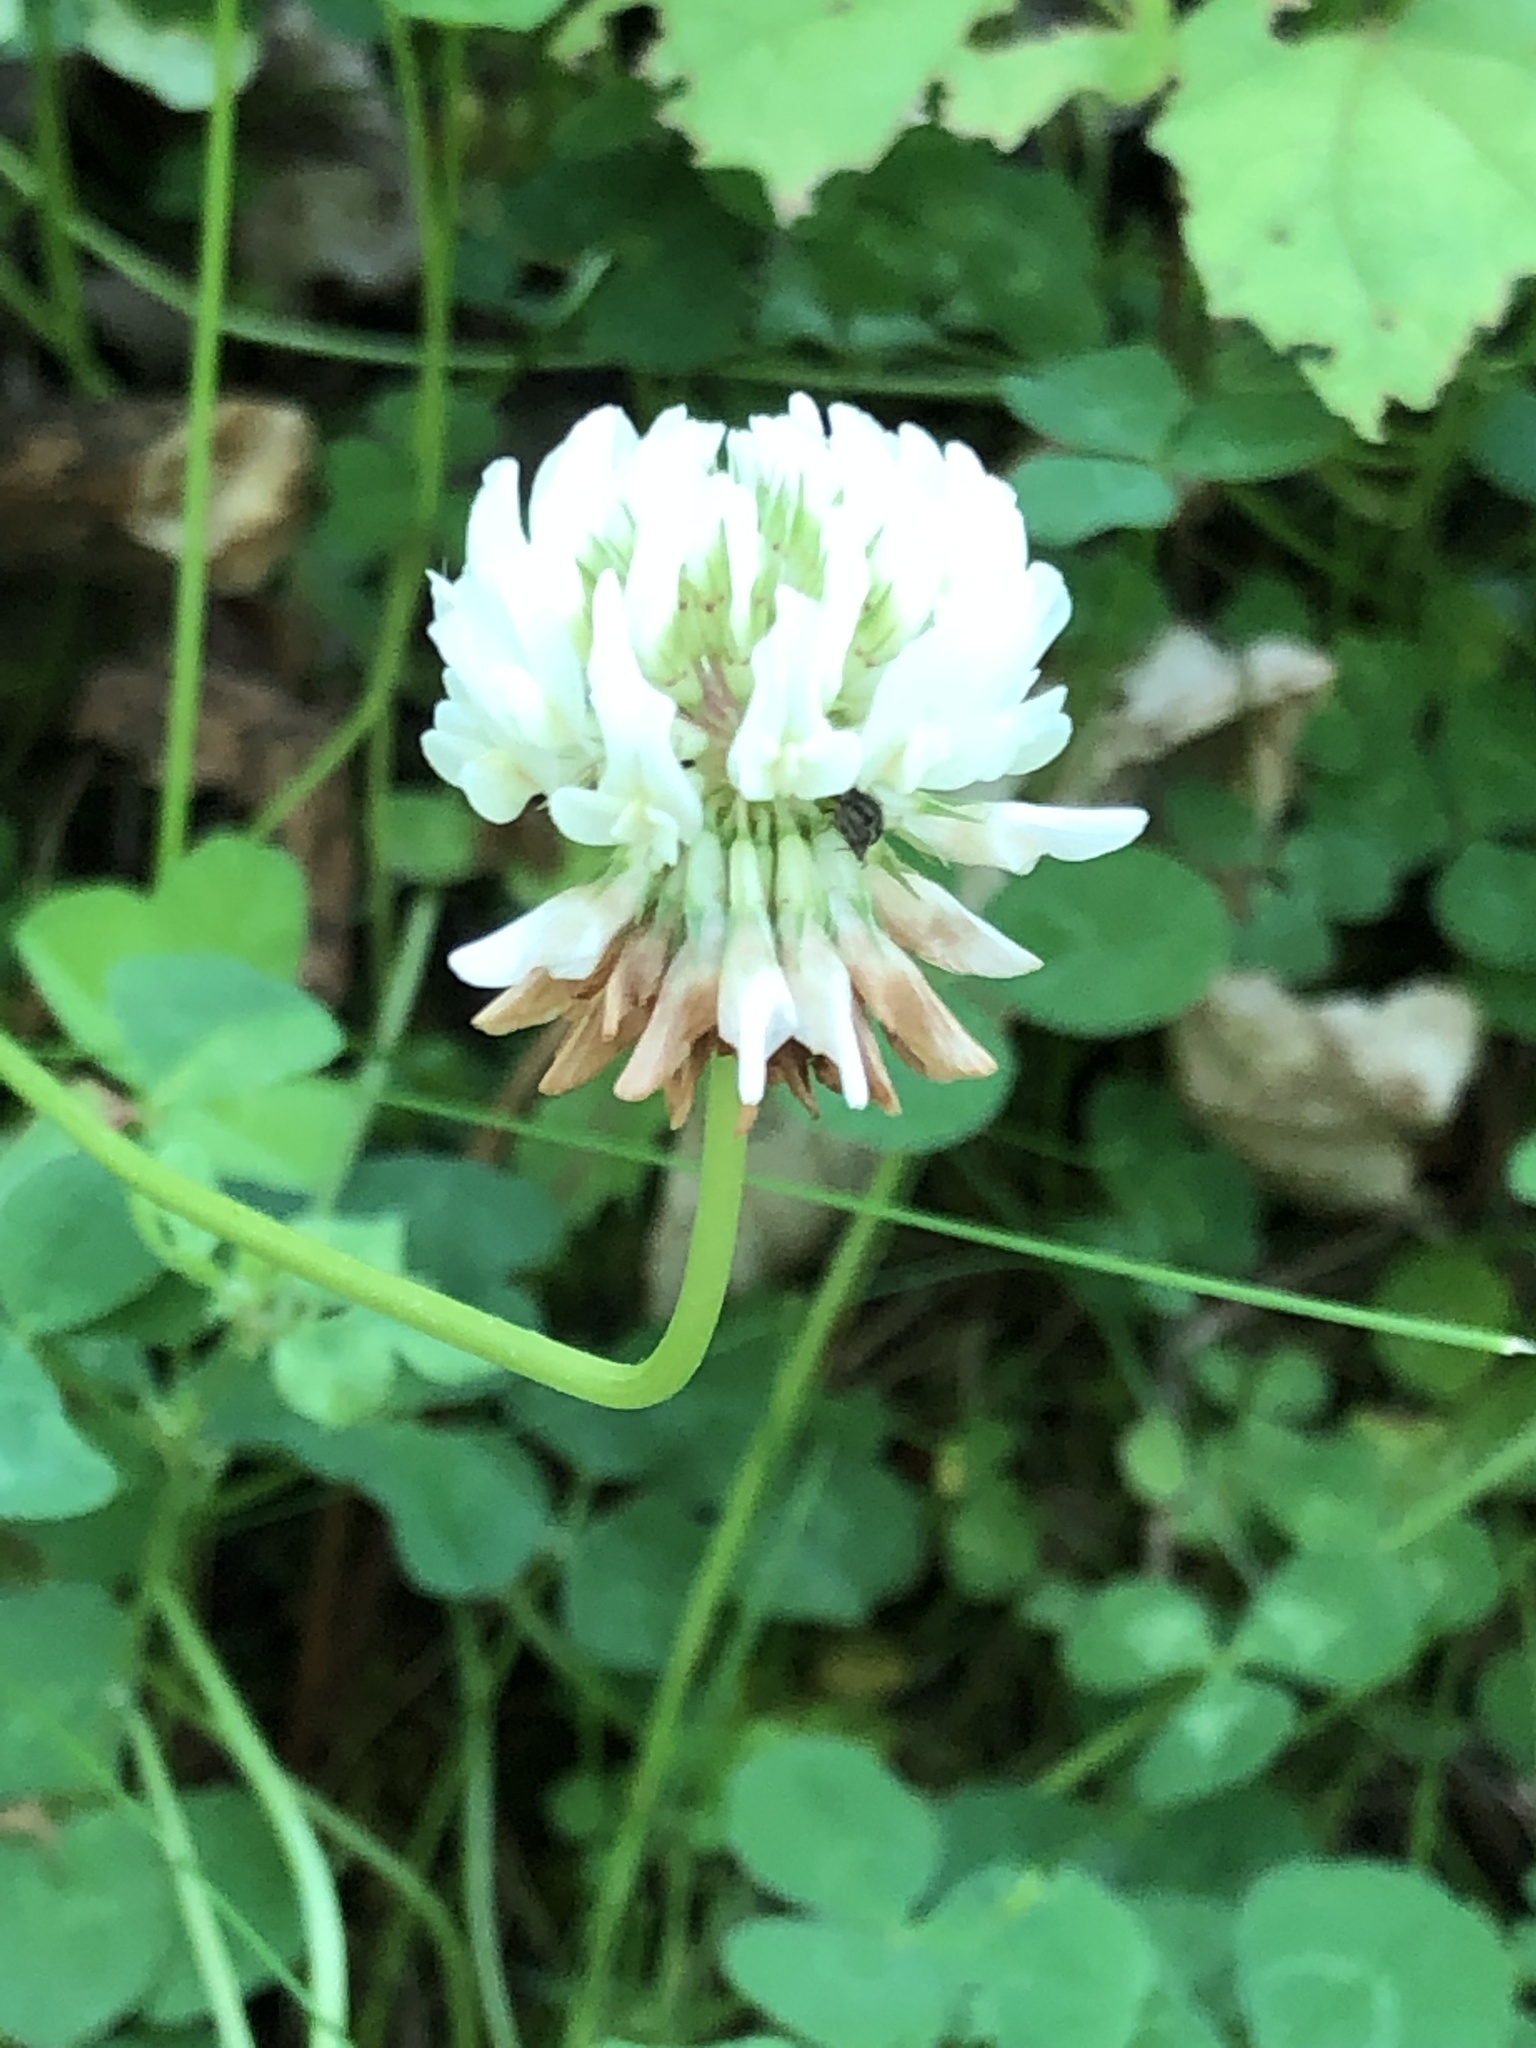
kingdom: Plantae
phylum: Tracheophyta
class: Magnoliopsida
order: Fabales
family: Fabaceae
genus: Trifolium
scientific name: Trifolium repens
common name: White clover
